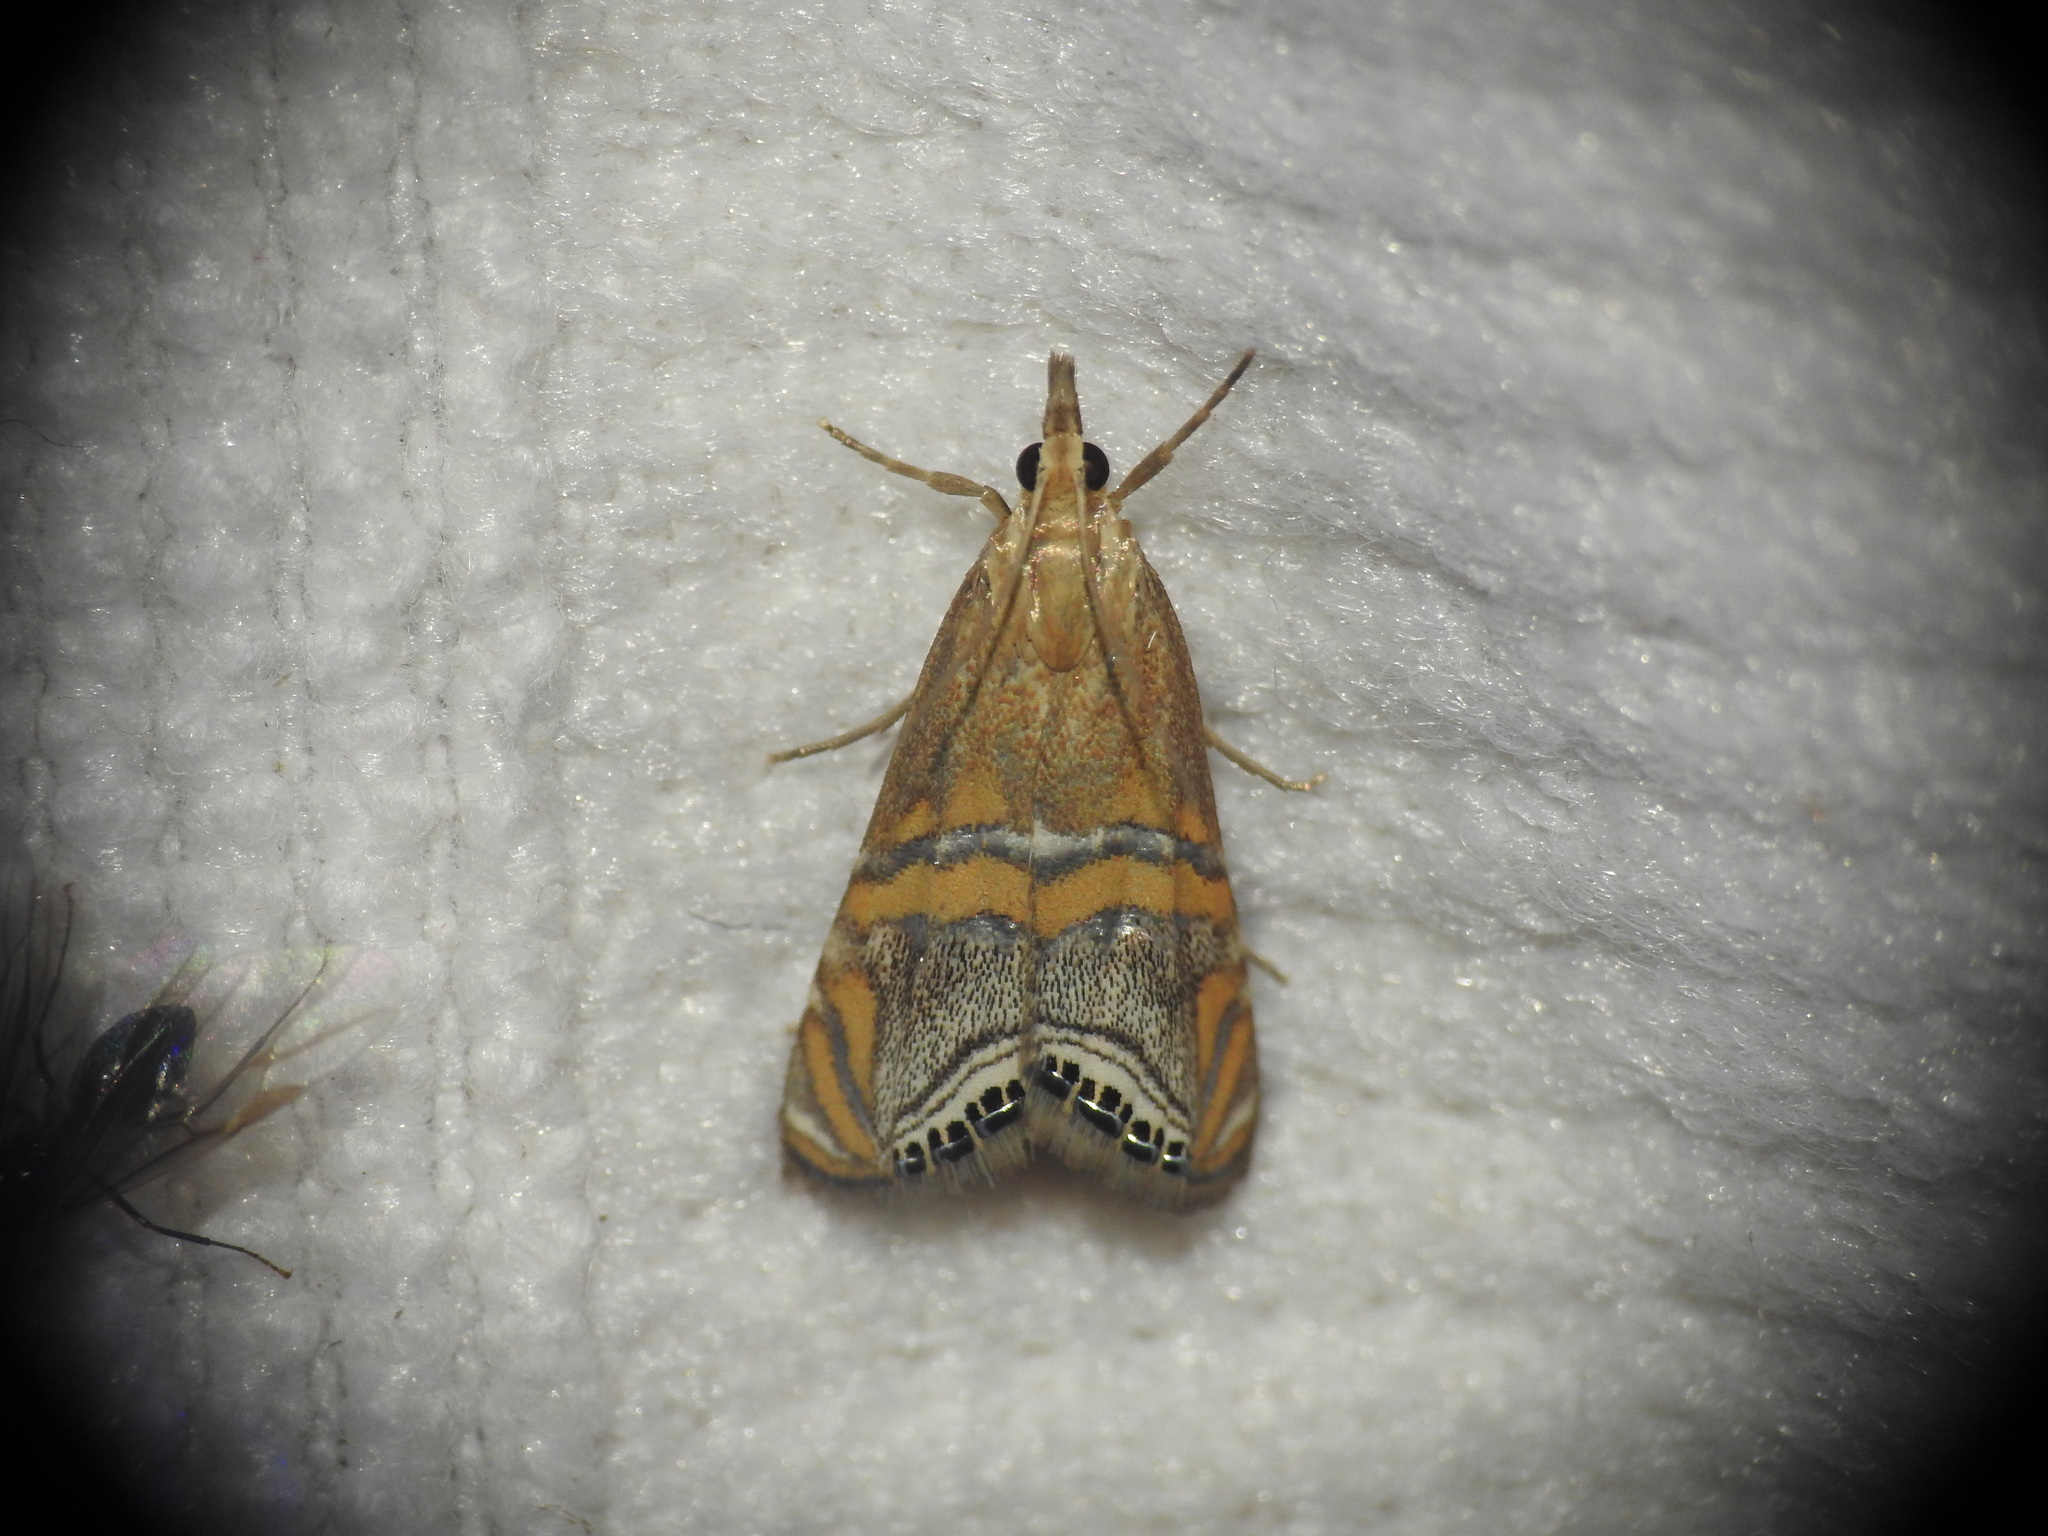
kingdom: Animalia
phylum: Arthropoda
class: Insecta
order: Lepidoptera
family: Crambidae
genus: Euchromius
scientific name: Euchromius bella
